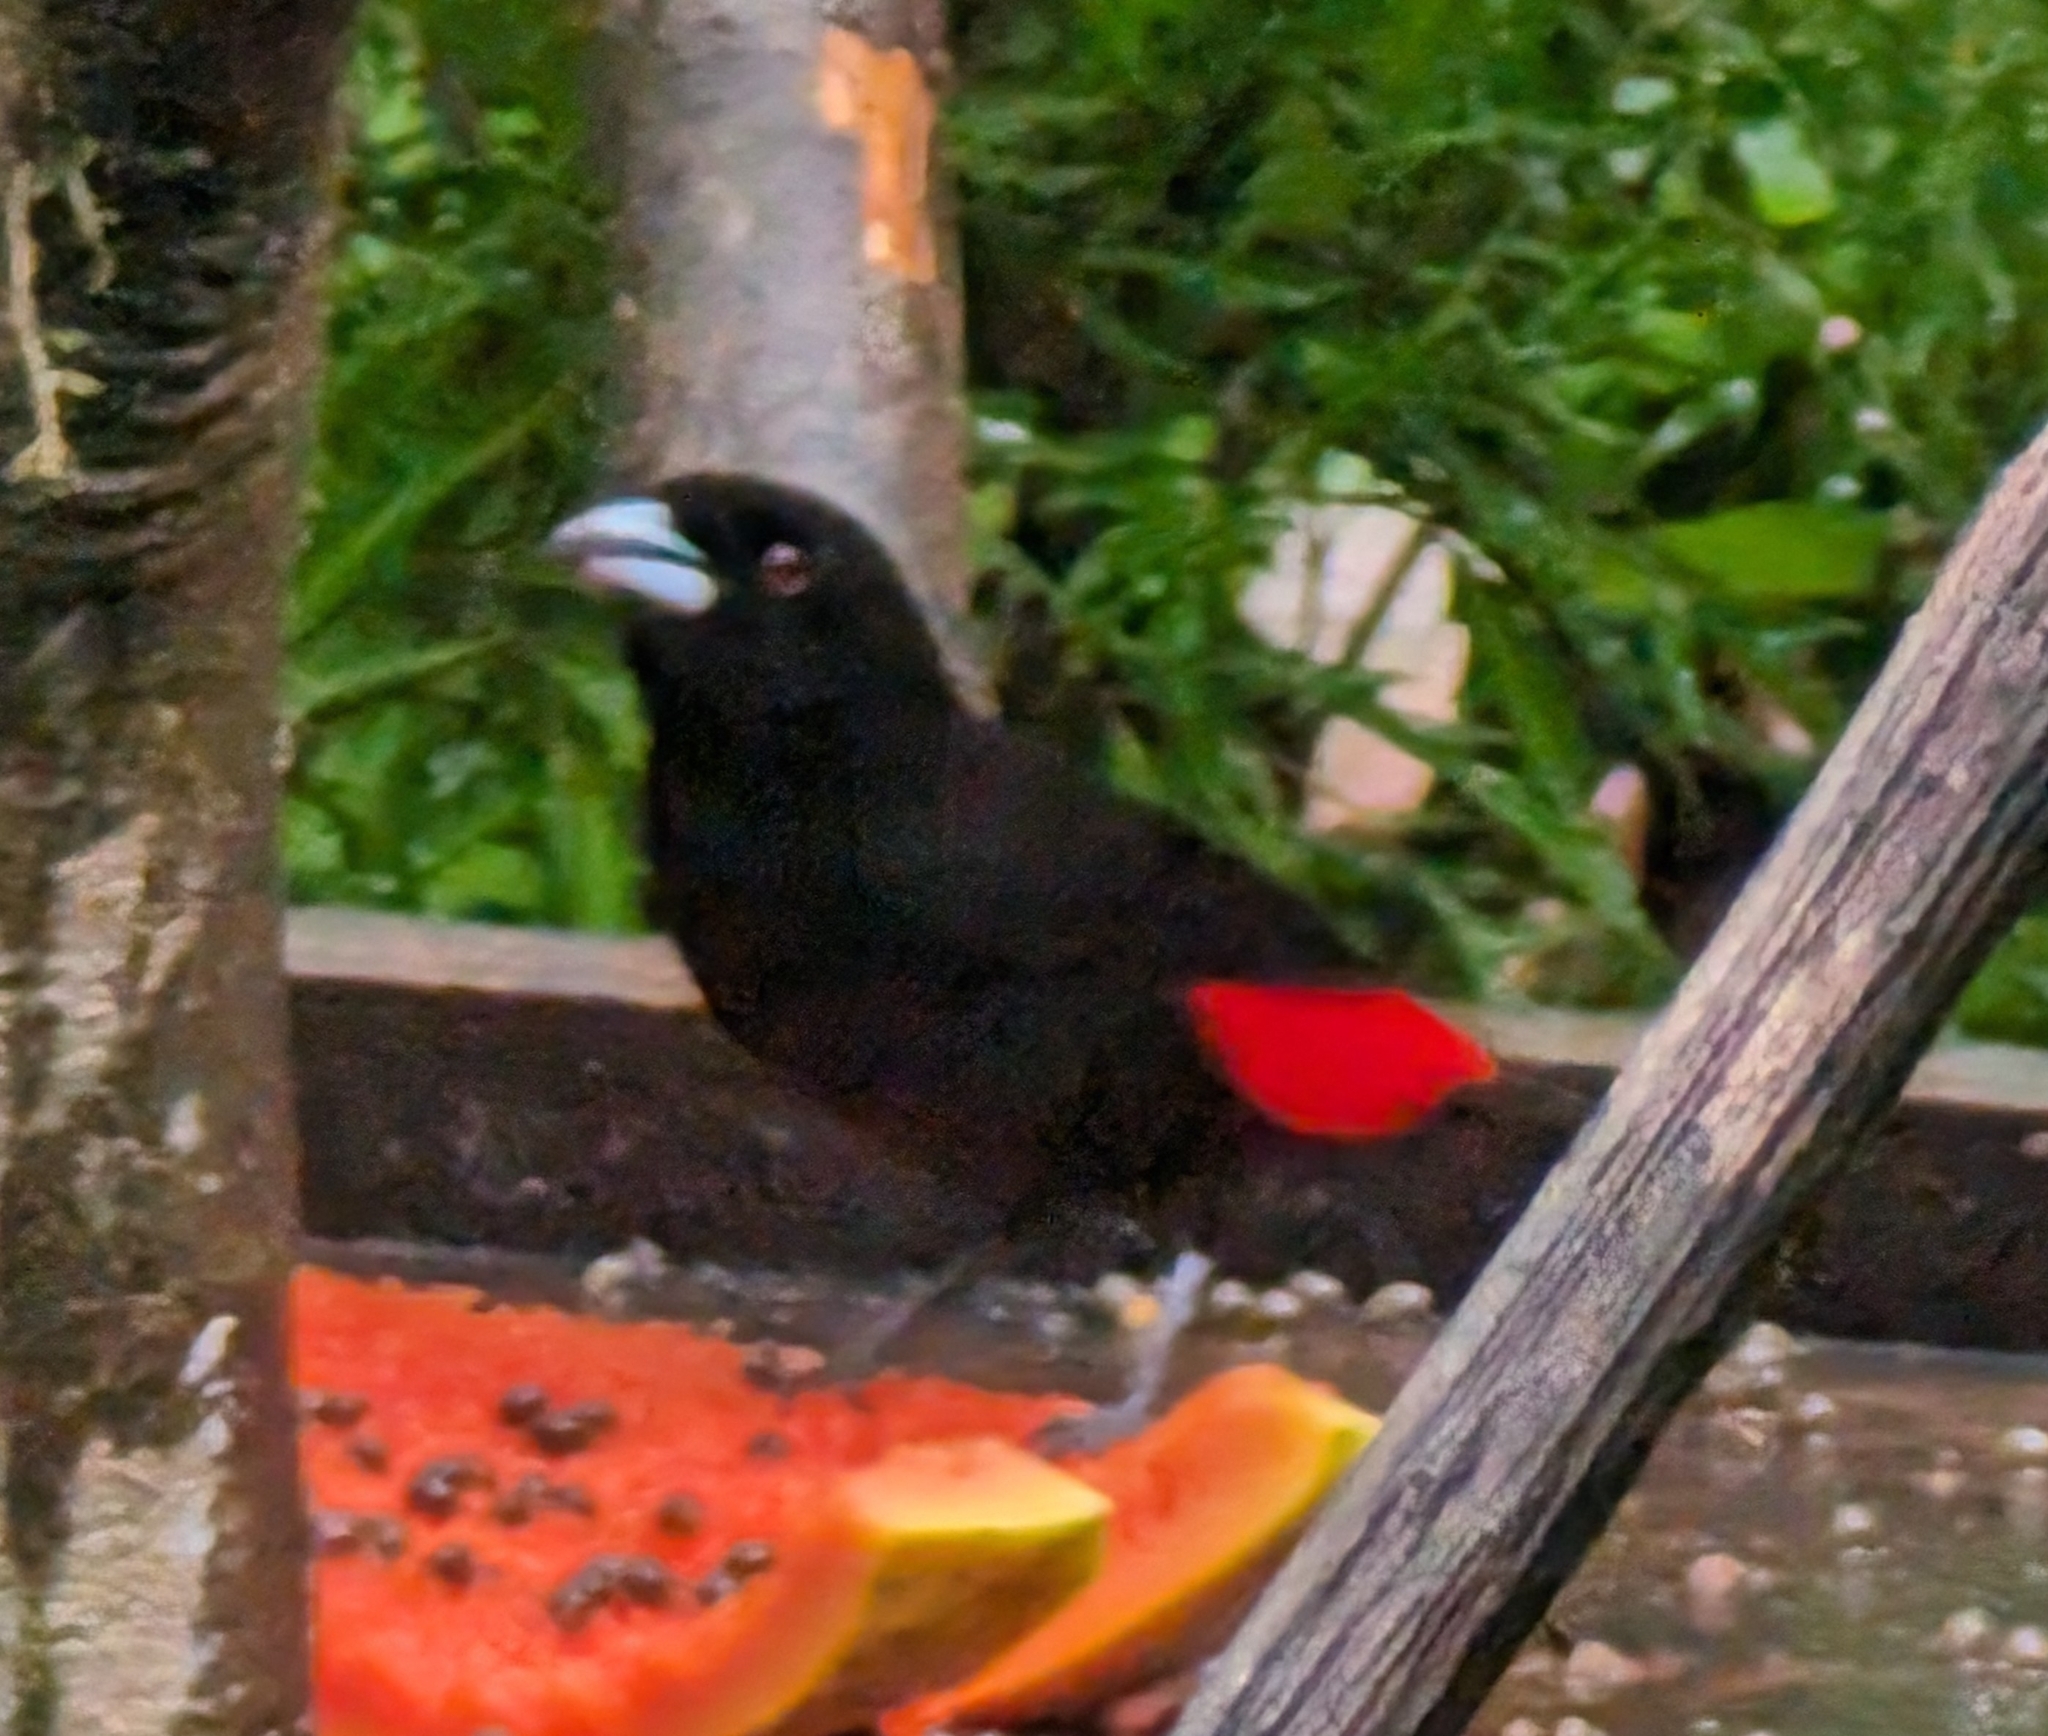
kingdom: Animalia
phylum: Chordata
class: Aves
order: Passeriformes
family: Thraupidae
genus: Ramphocelus
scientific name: Ramphocelus passerinii
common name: Passerini's tanager
